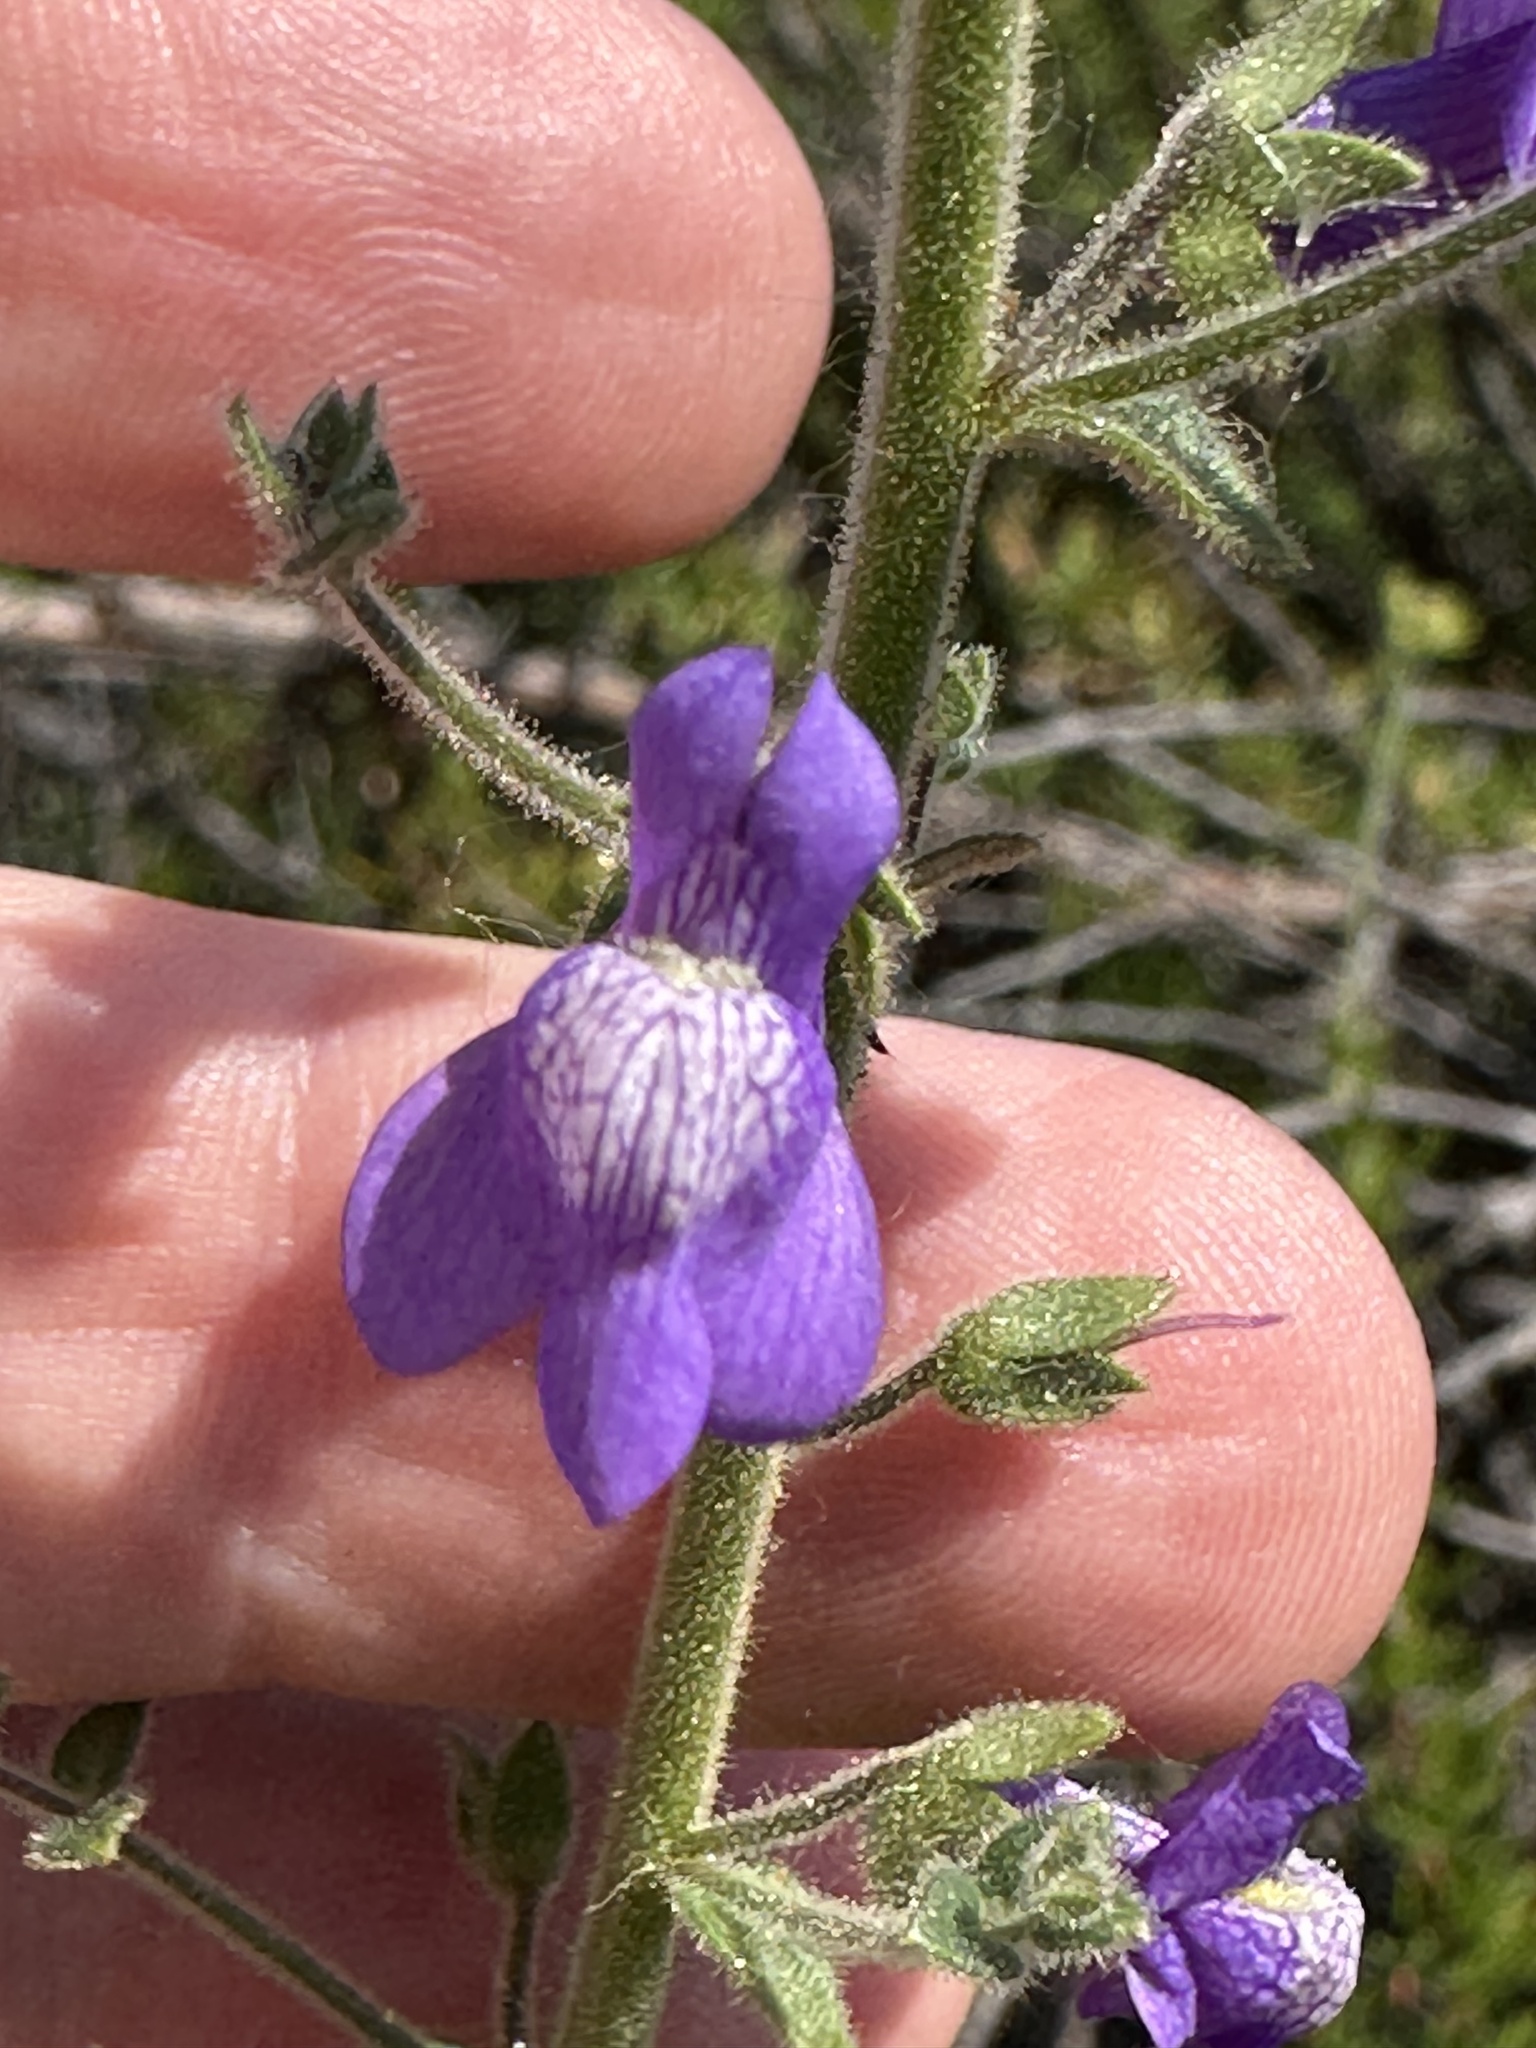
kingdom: Plantae
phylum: Tracheophyta
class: Magnoliopsida
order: Lamiales
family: Plantaginaceae
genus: Sairocarpus
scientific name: Sairocarpus nuttallianus
